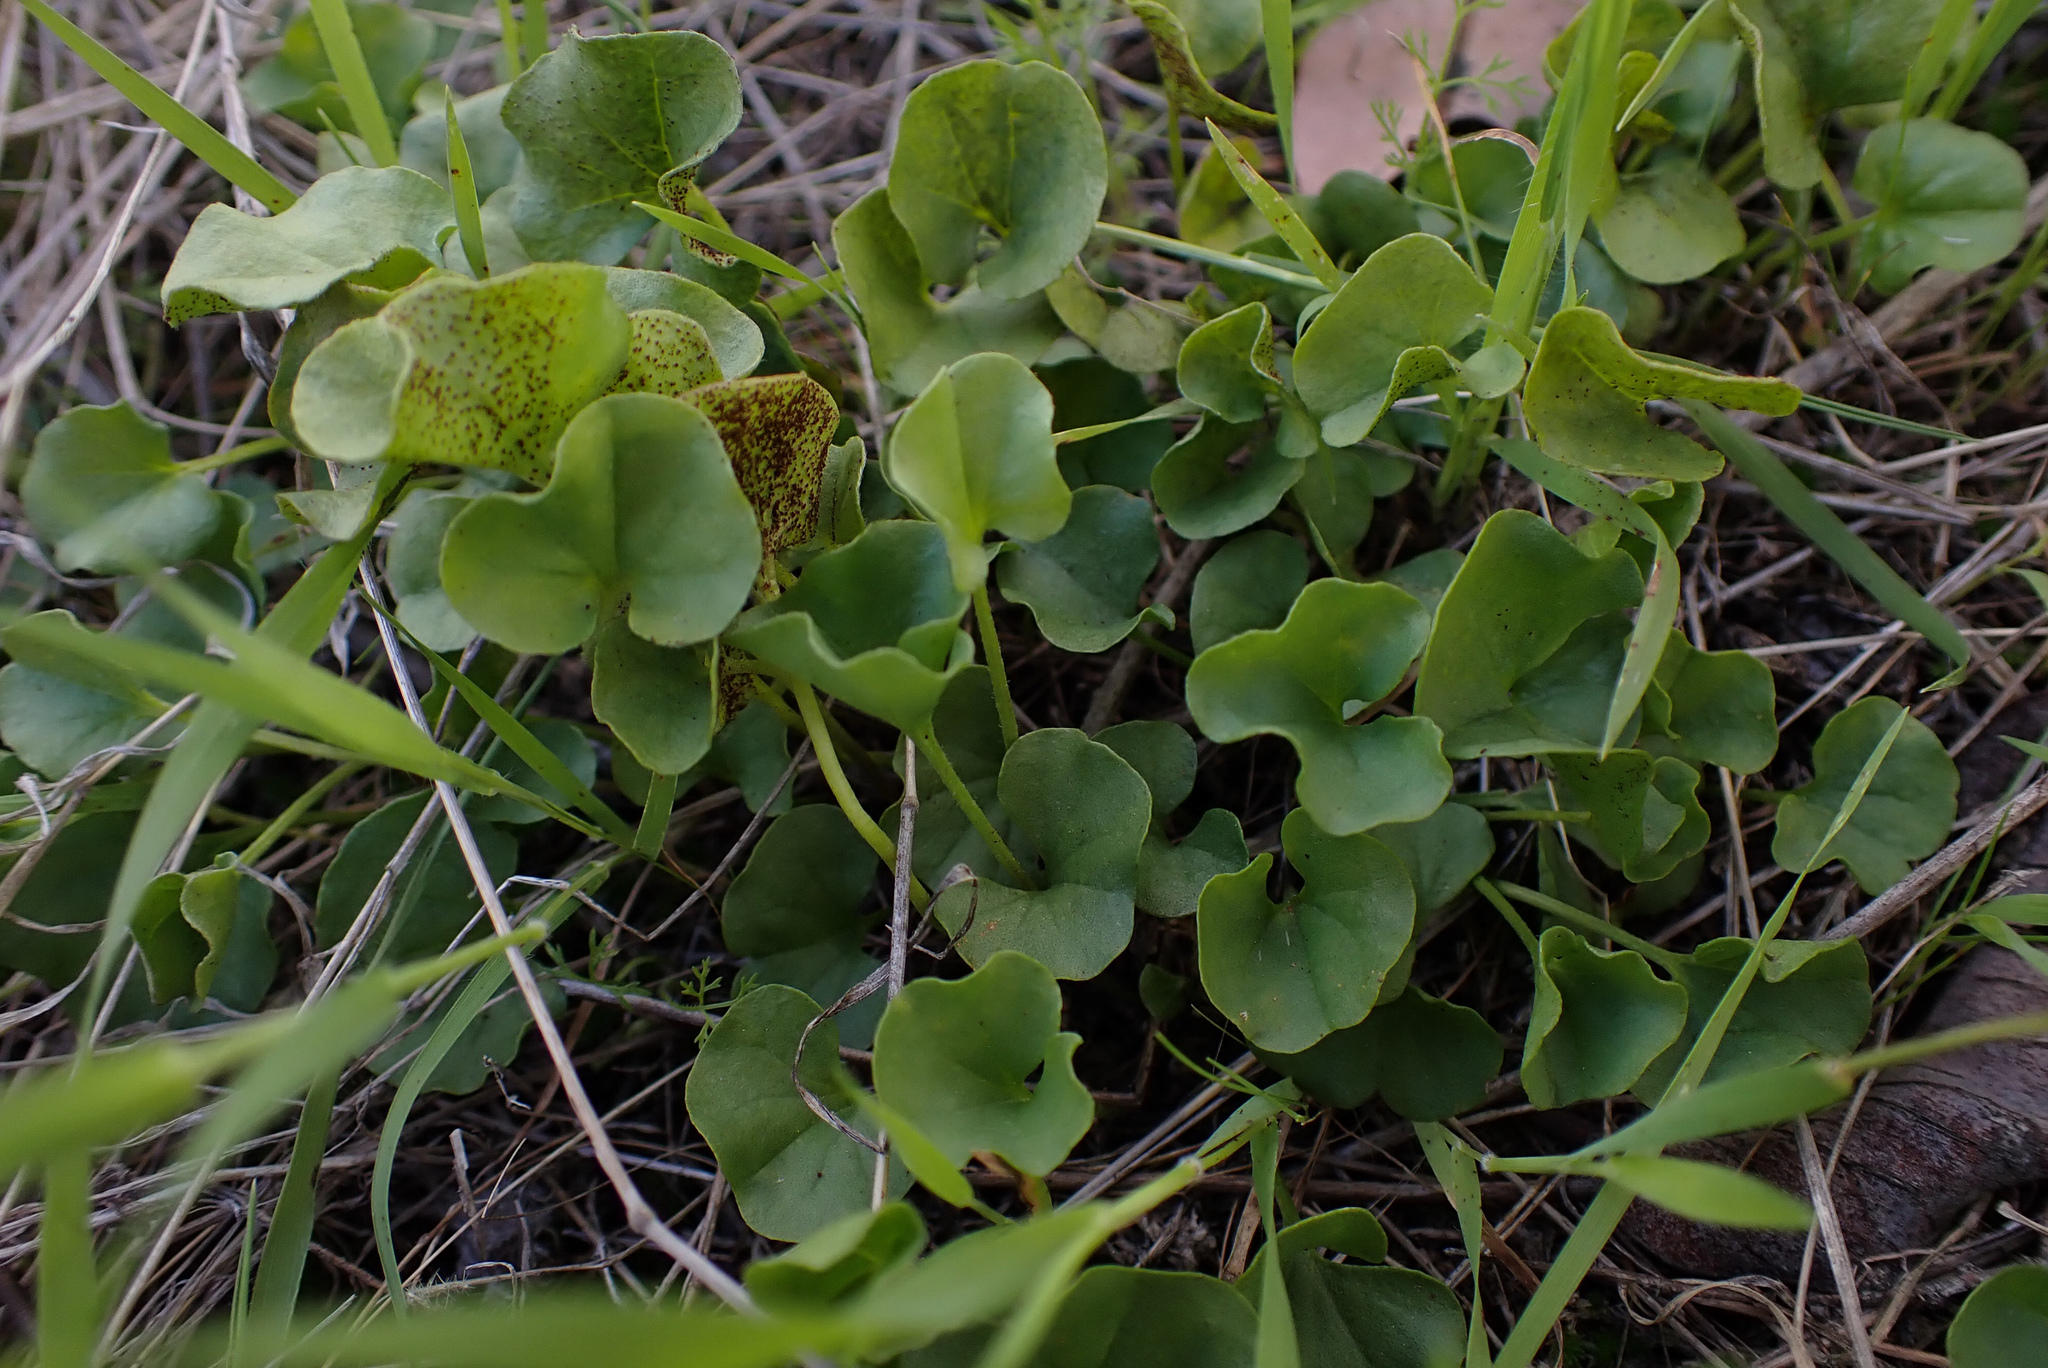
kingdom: Plantae
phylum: Tracheophyta
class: Magnoliopsida
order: Solanales
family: Convolvulaceae
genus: Dichondra
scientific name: Dichondra occidentalis
